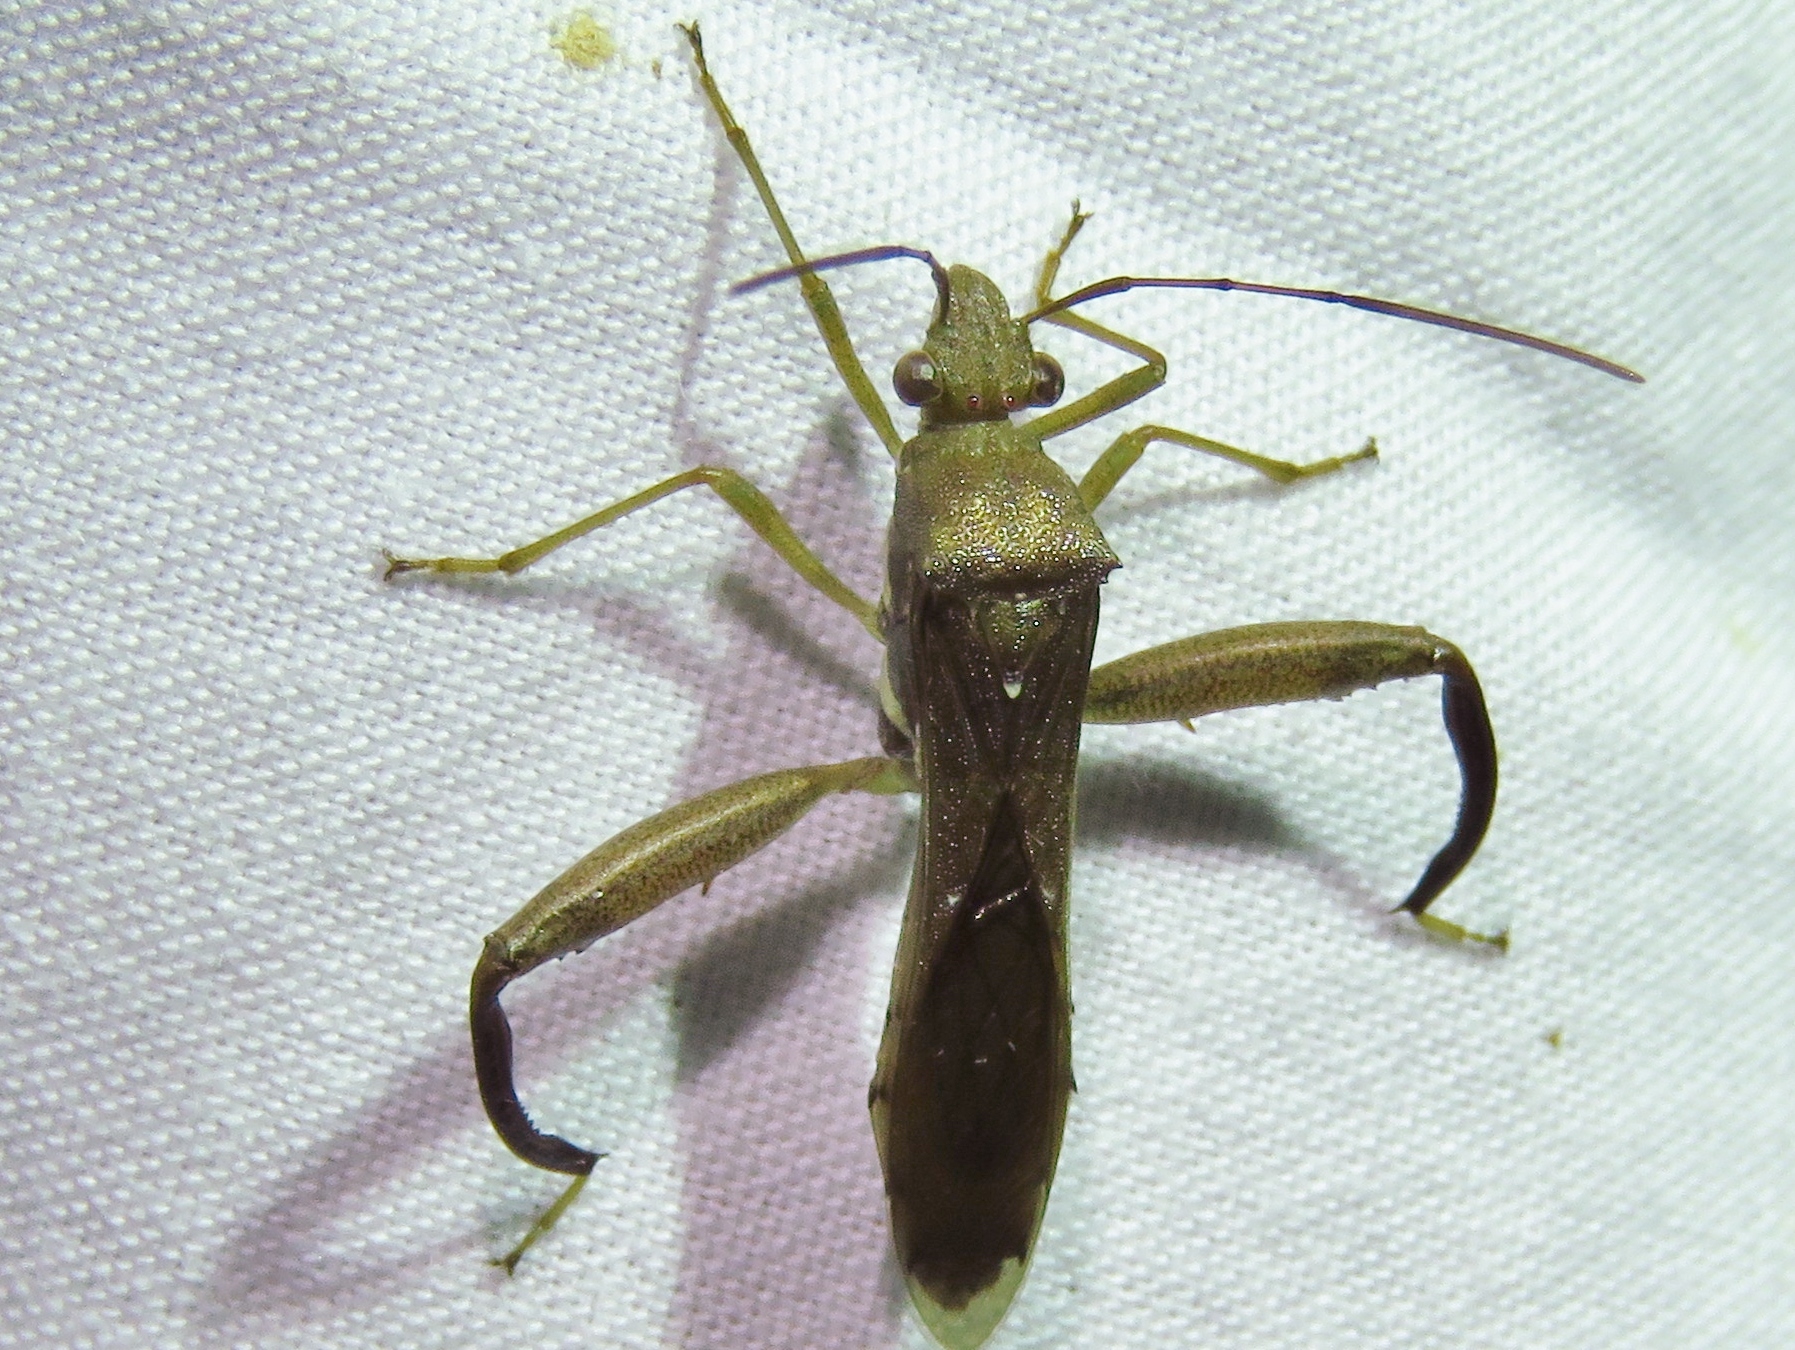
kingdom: Animalia
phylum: Arthropoda
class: Insecta
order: Hemiptera
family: Alydidae
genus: Hyalymenus
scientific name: Hyalymenus tarsatus
